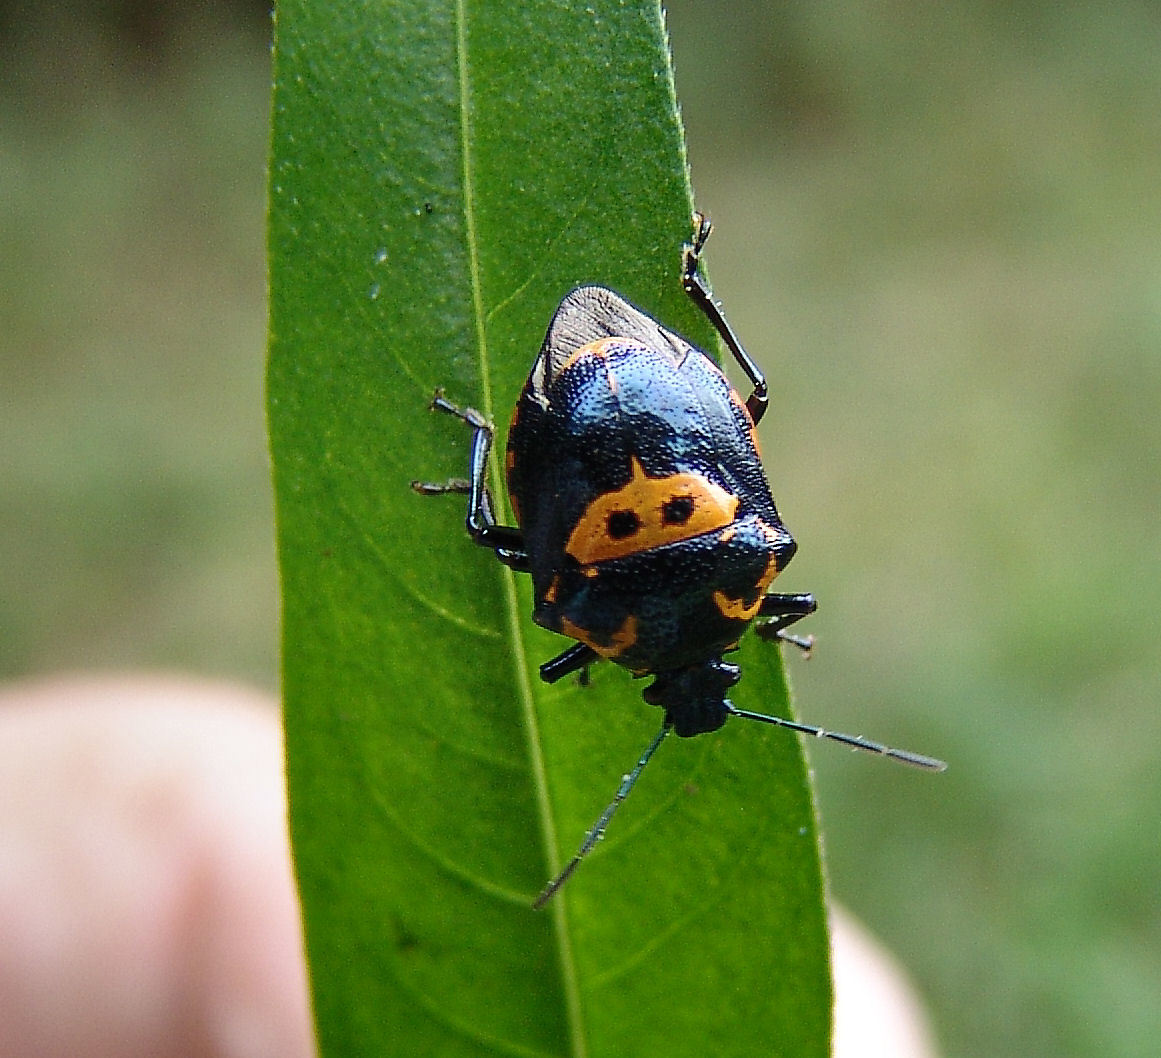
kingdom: Animalia
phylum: Arthropoda
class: Insecta
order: Hemiptera
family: Pentatomidae
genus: Stiretrus
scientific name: Stiretrus anchorago
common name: Anchor stink bug
